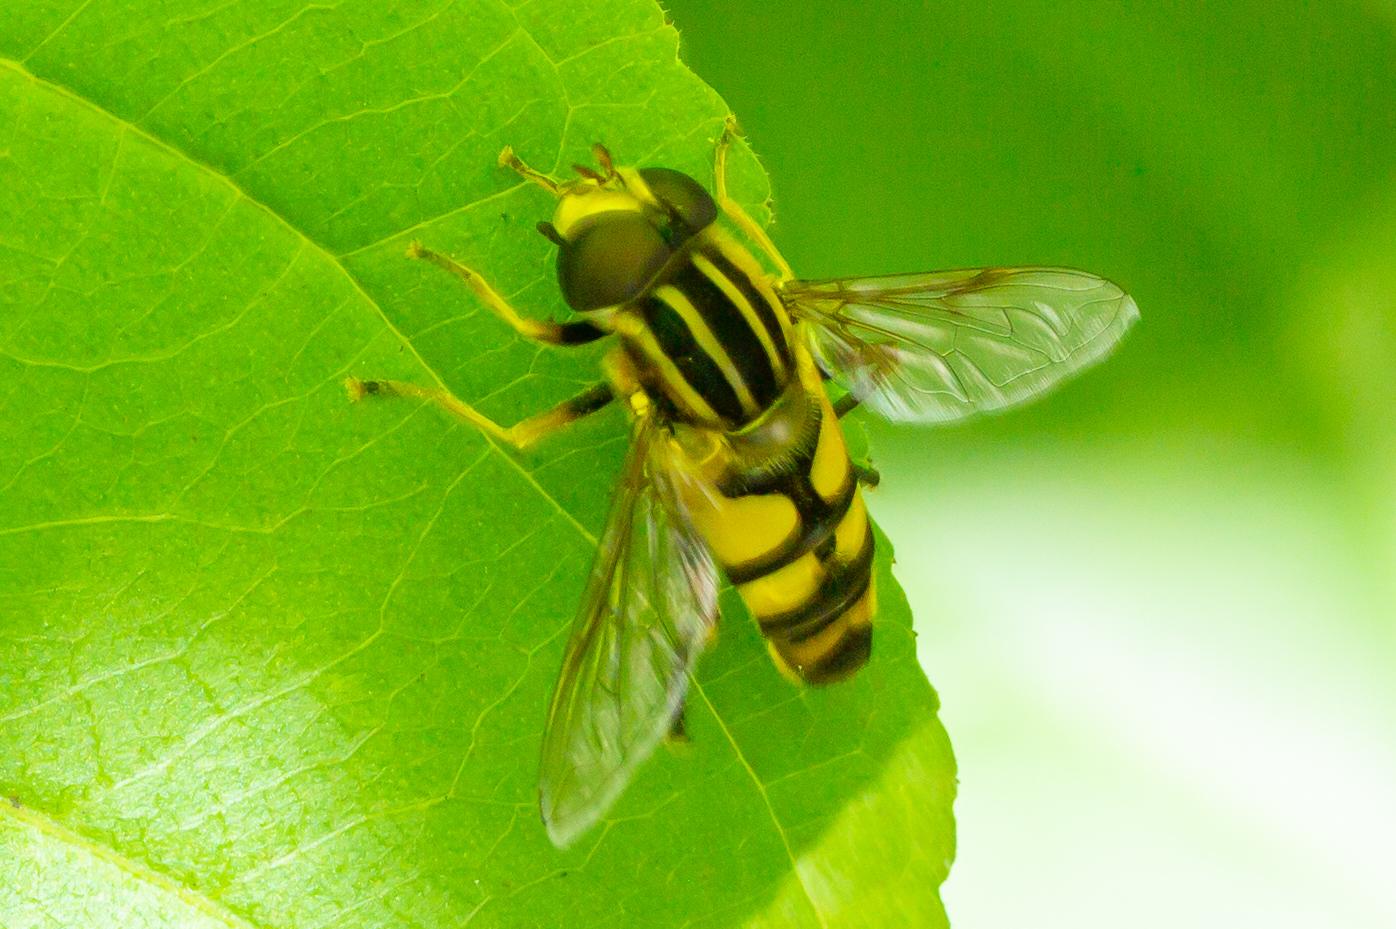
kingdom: Animalia
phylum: Arthropoda
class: Insecta
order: Diptera
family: Syrphidae
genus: Helophilus
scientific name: Helophilus fasciatus
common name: Narrow-headed marsh fly
